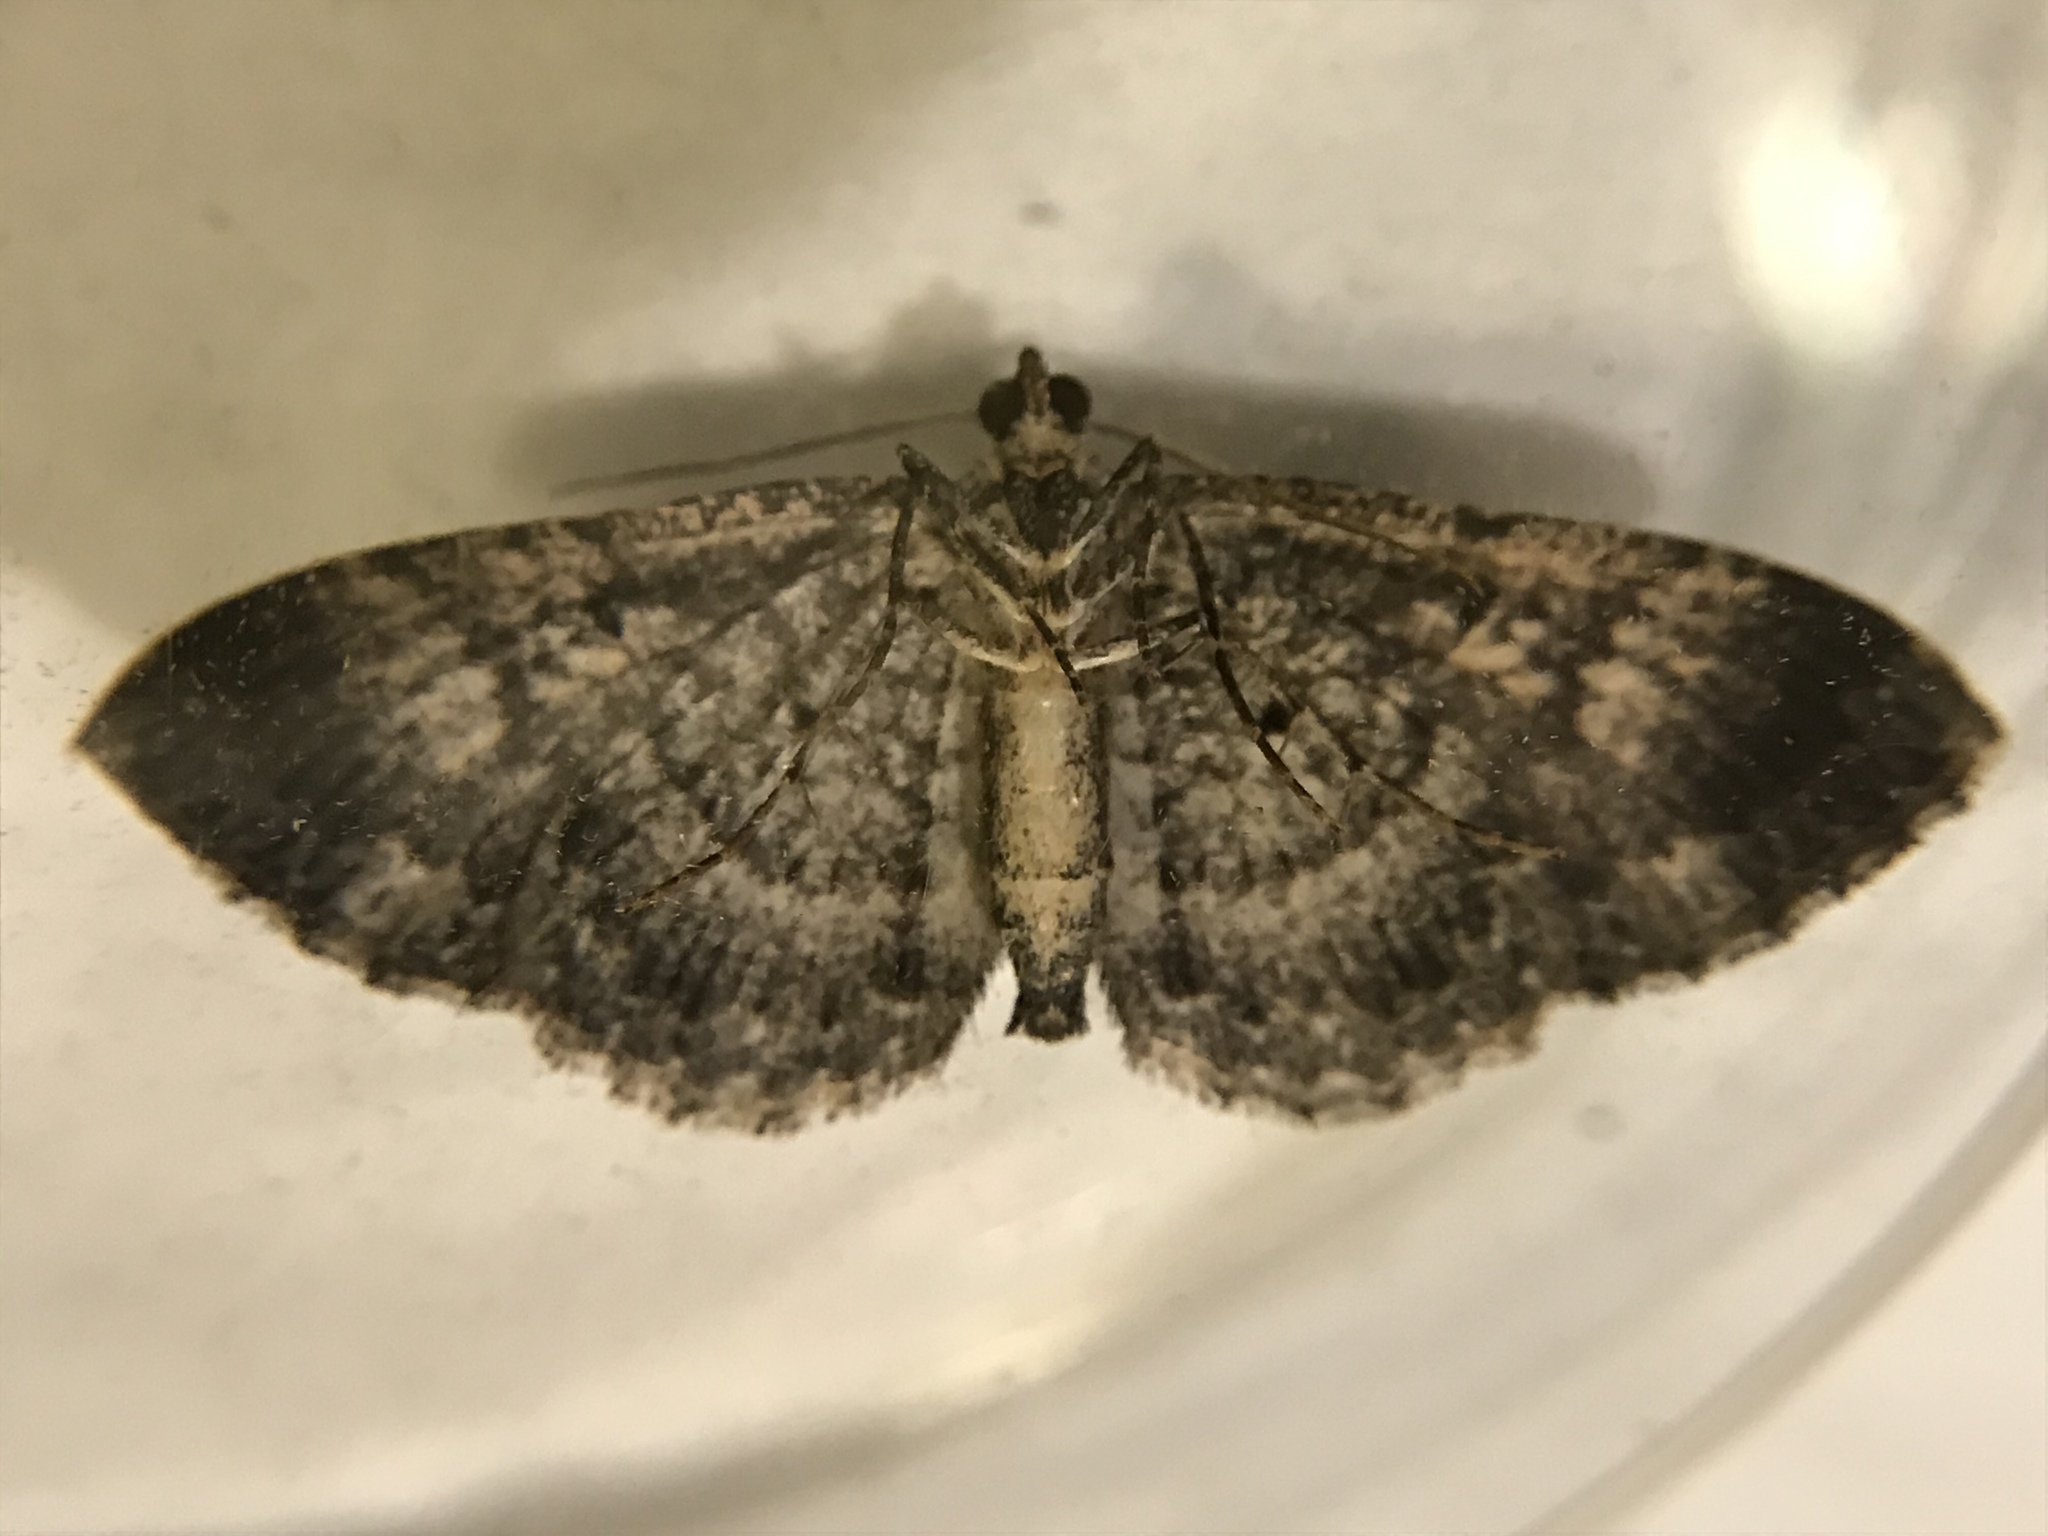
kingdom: Animalia
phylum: Arthropoda
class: Insecta
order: Lepidoptera
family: Geometridae
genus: Disclisioprocta
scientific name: Disclisioprocta stellata
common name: Somber carpet
